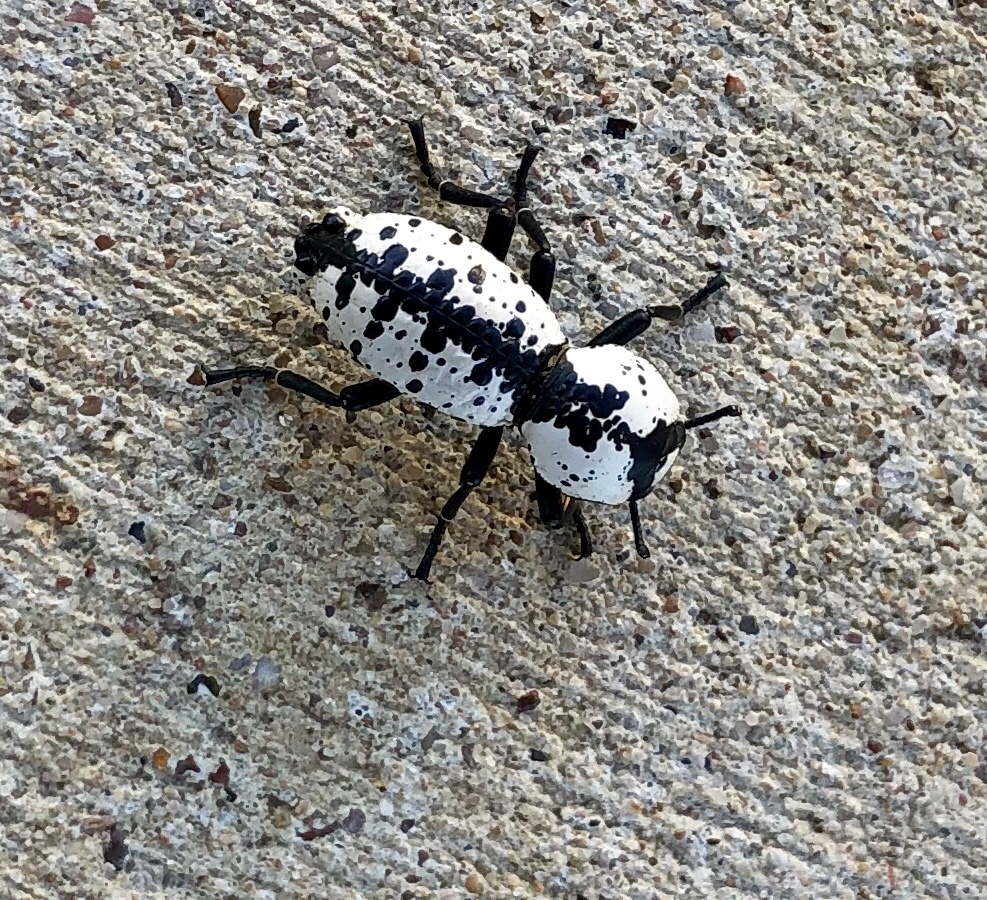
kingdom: Animalia
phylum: Arthropoda
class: Insecta
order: Coleoptera
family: Zopheridae
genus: Zopherus
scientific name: Zopherus nodulosus
